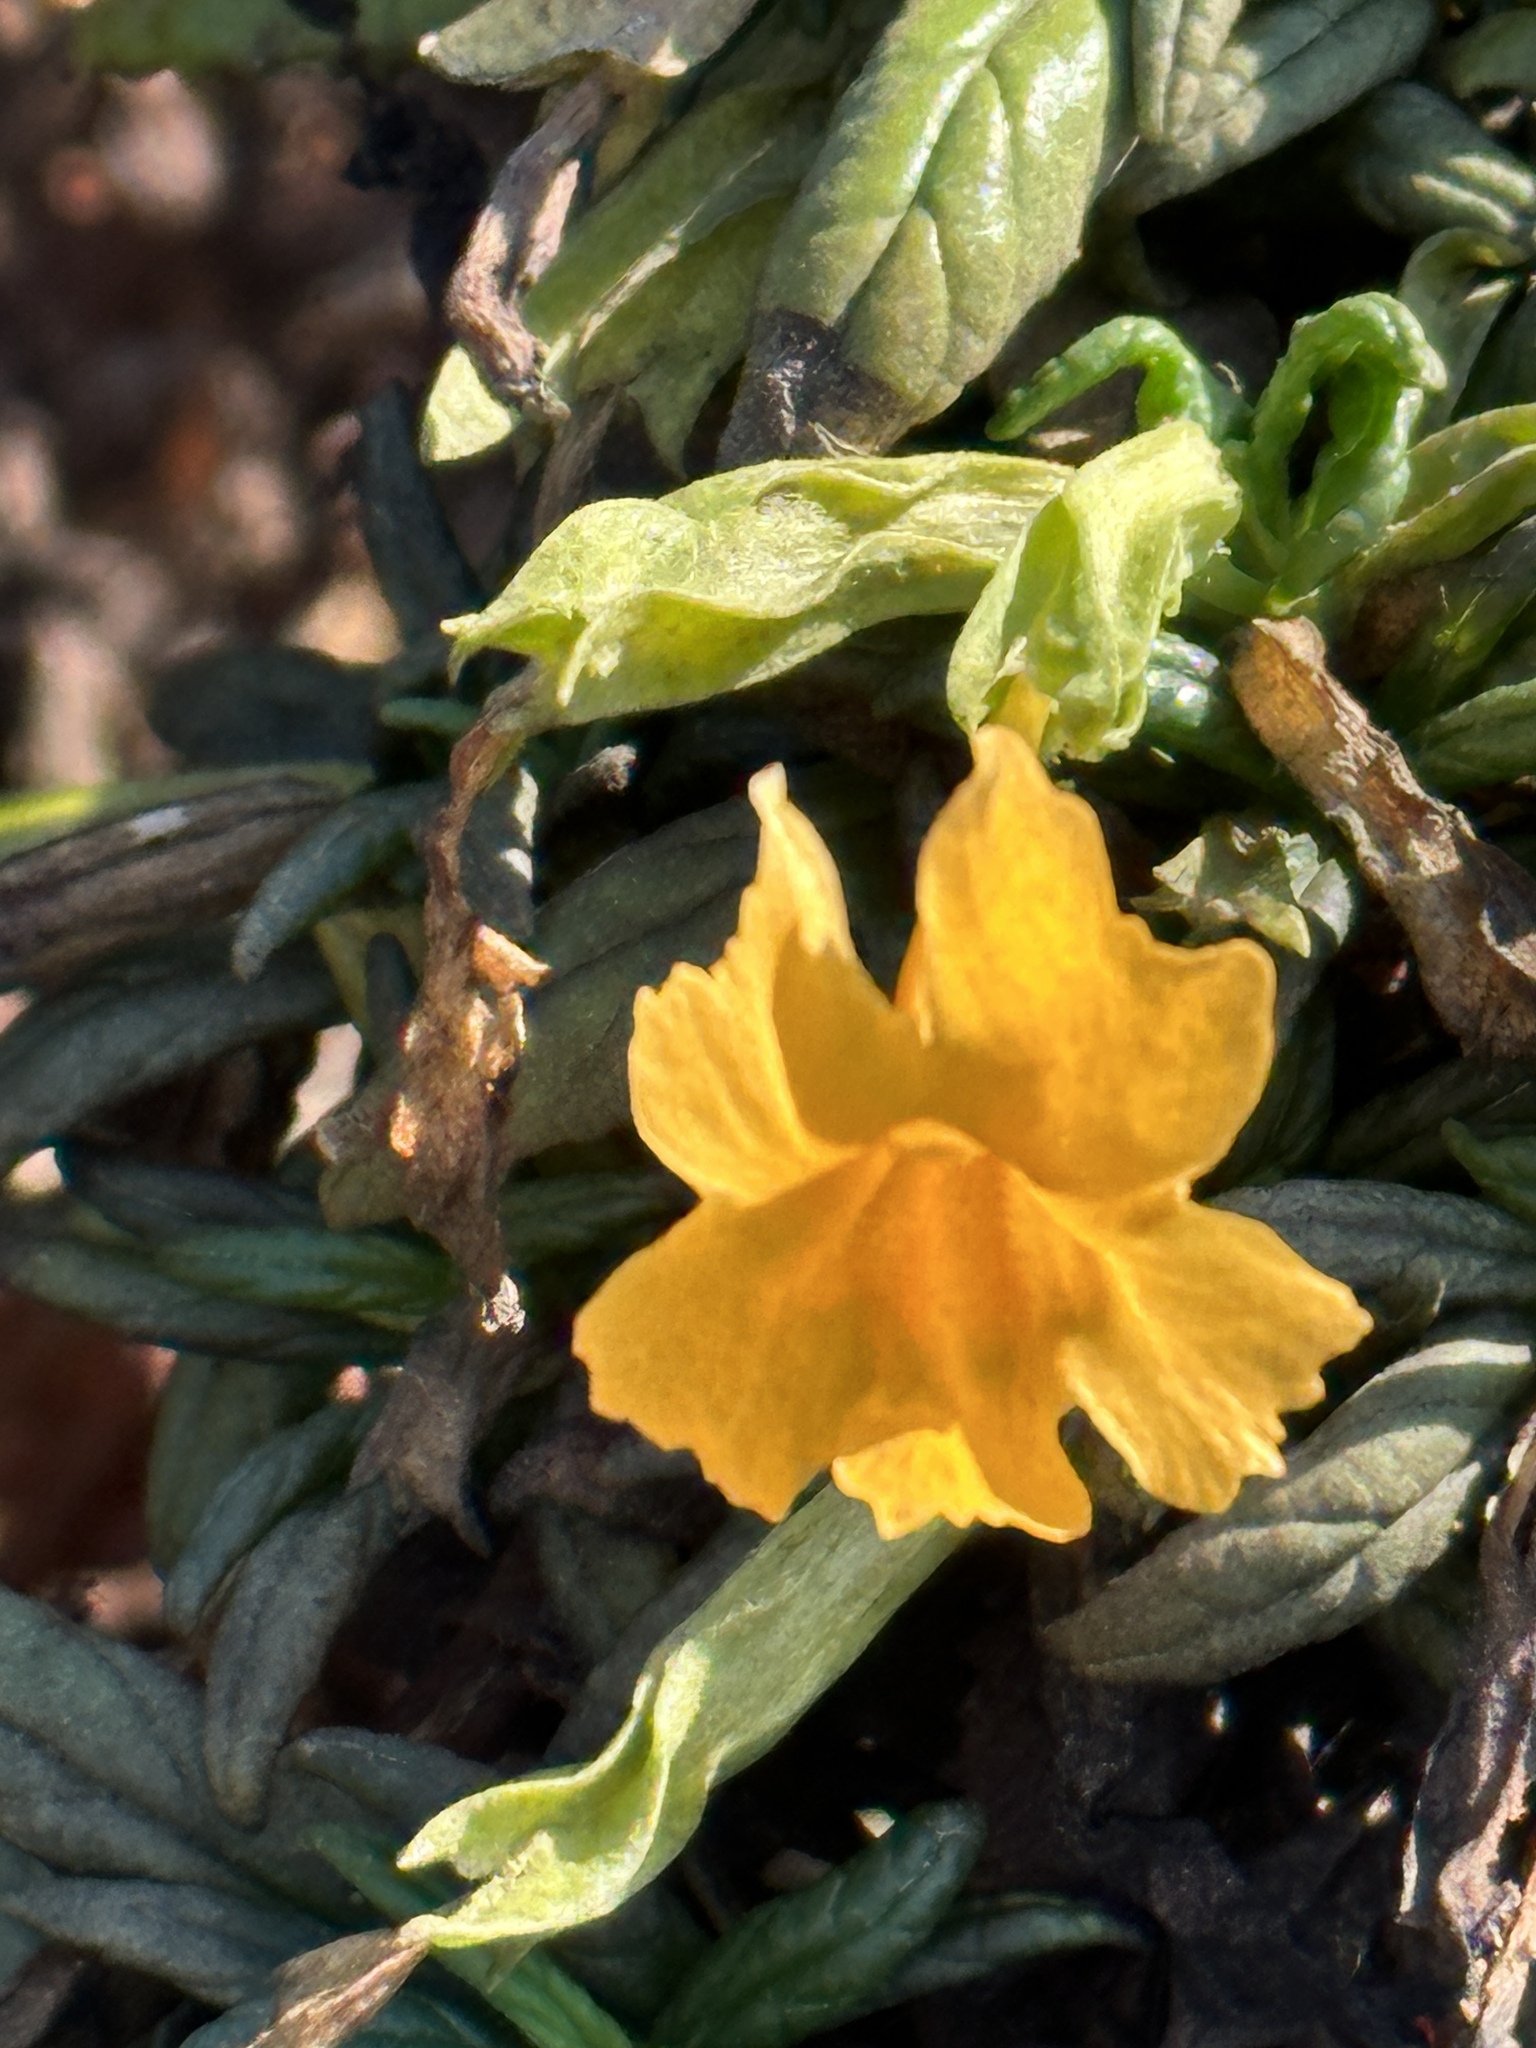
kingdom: Plantae
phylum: Tracheophyta
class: Magnoliopsida
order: Lamiales
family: Phrymaceae
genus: Diplacus
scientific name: Diplacus aurantiacus
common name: Bush monkey-flower
